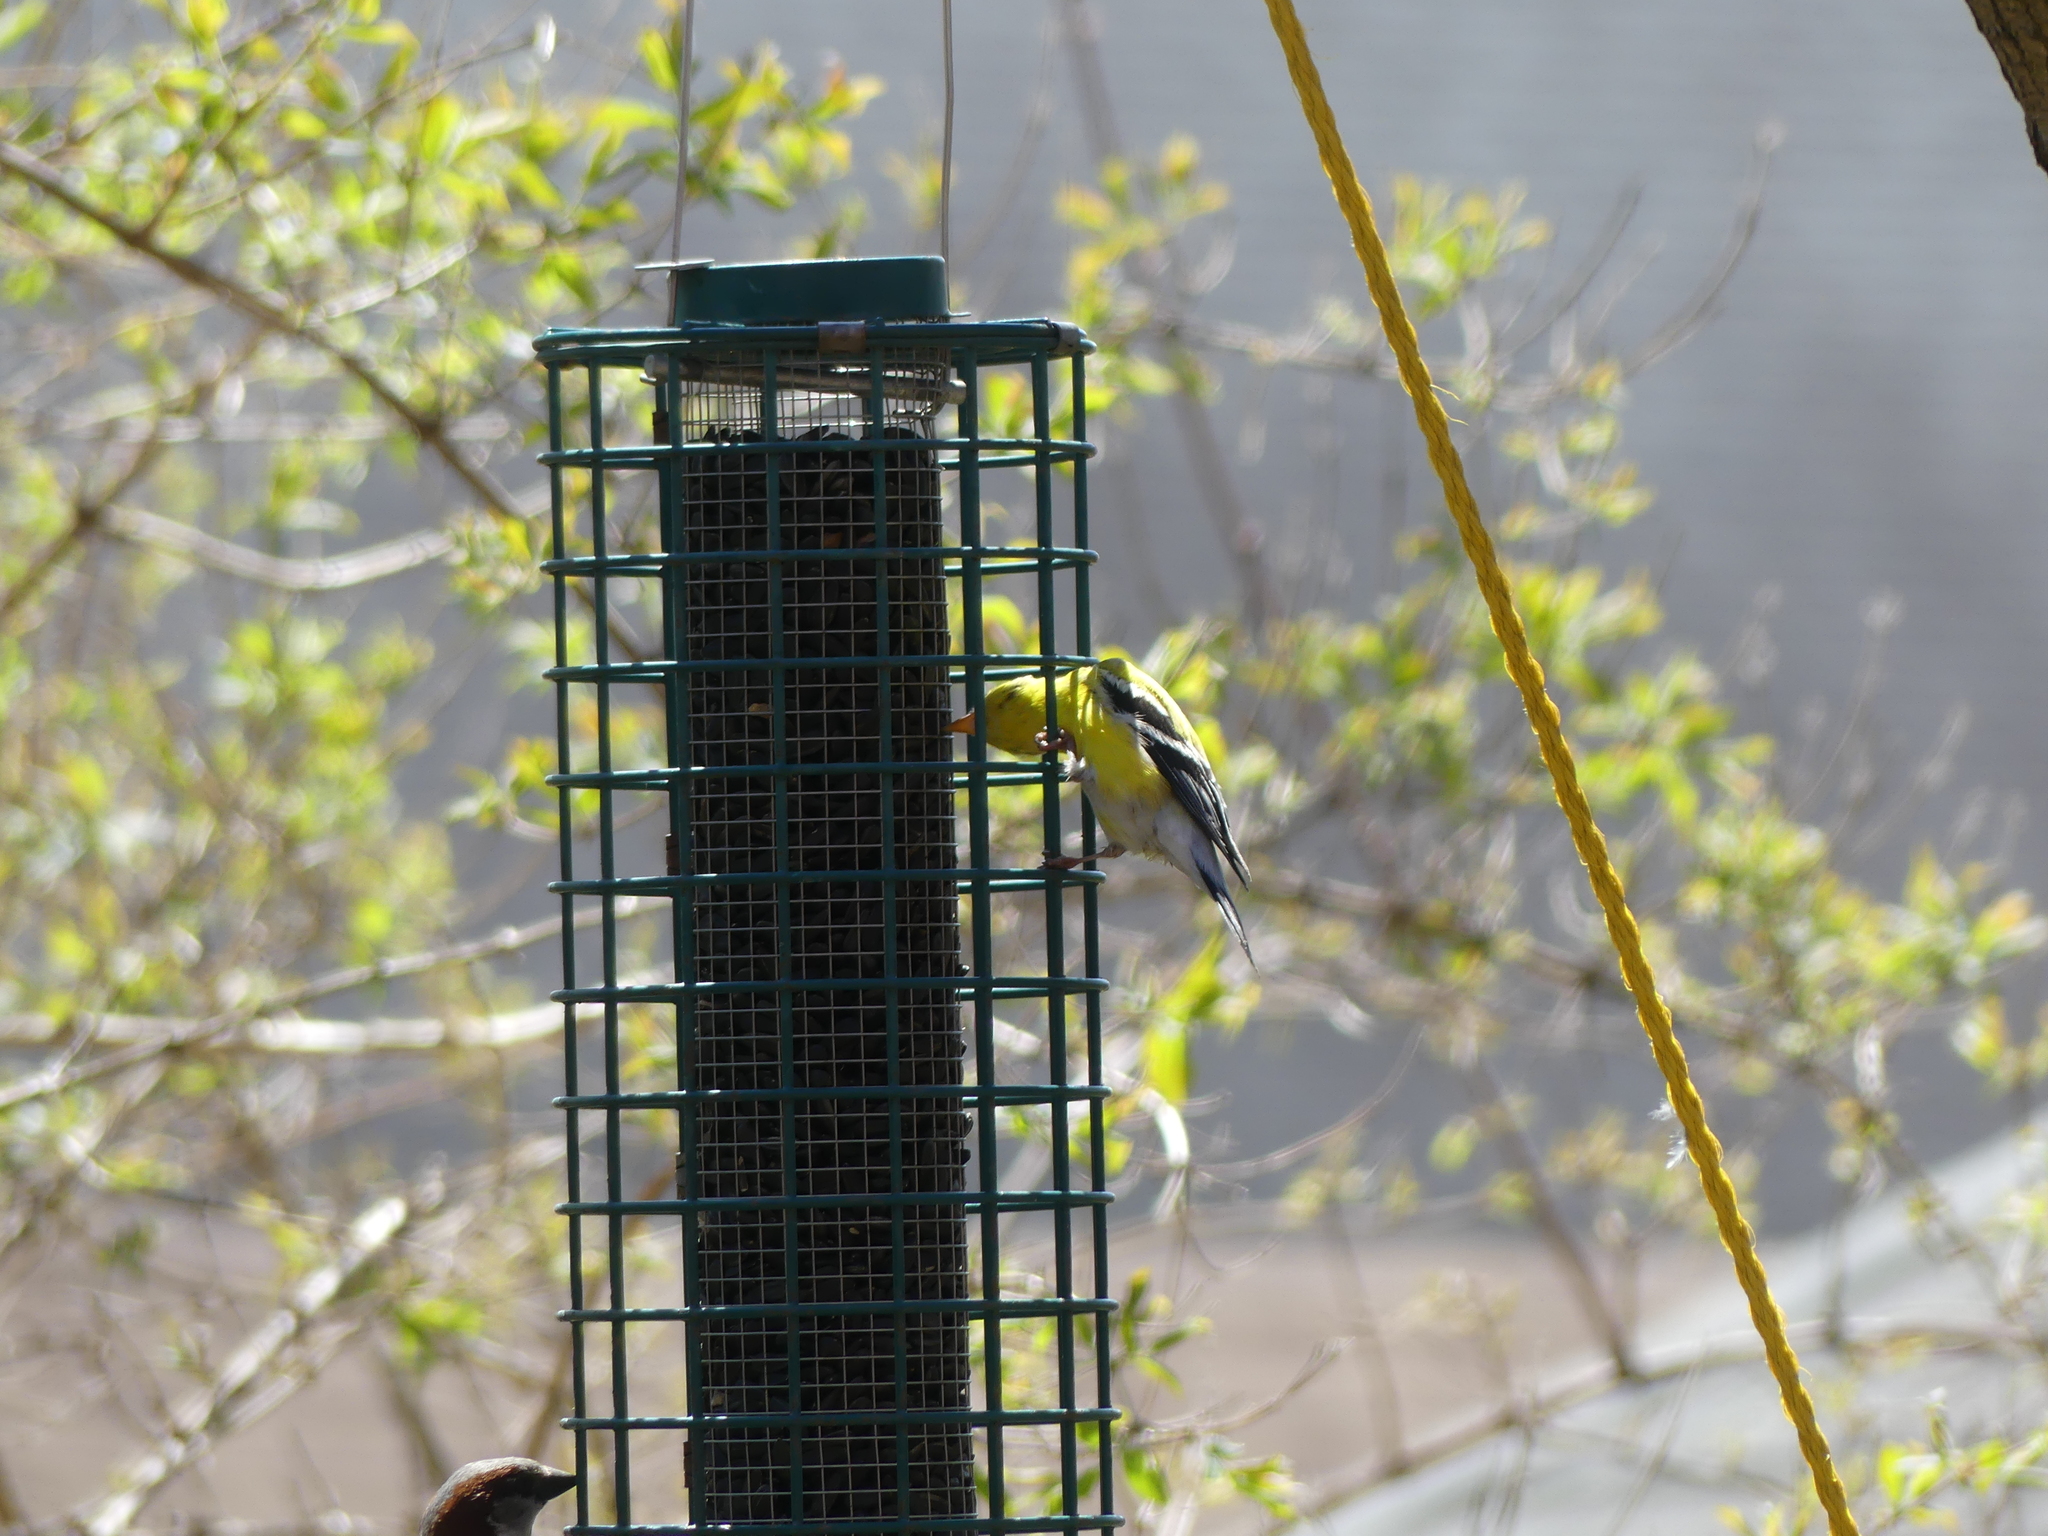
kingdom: Animalia
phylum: Chordata
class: Aves
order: Passeriformes
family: Fringillidae
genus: Spinus
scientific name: Spinus tristis
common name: American goldfinch
